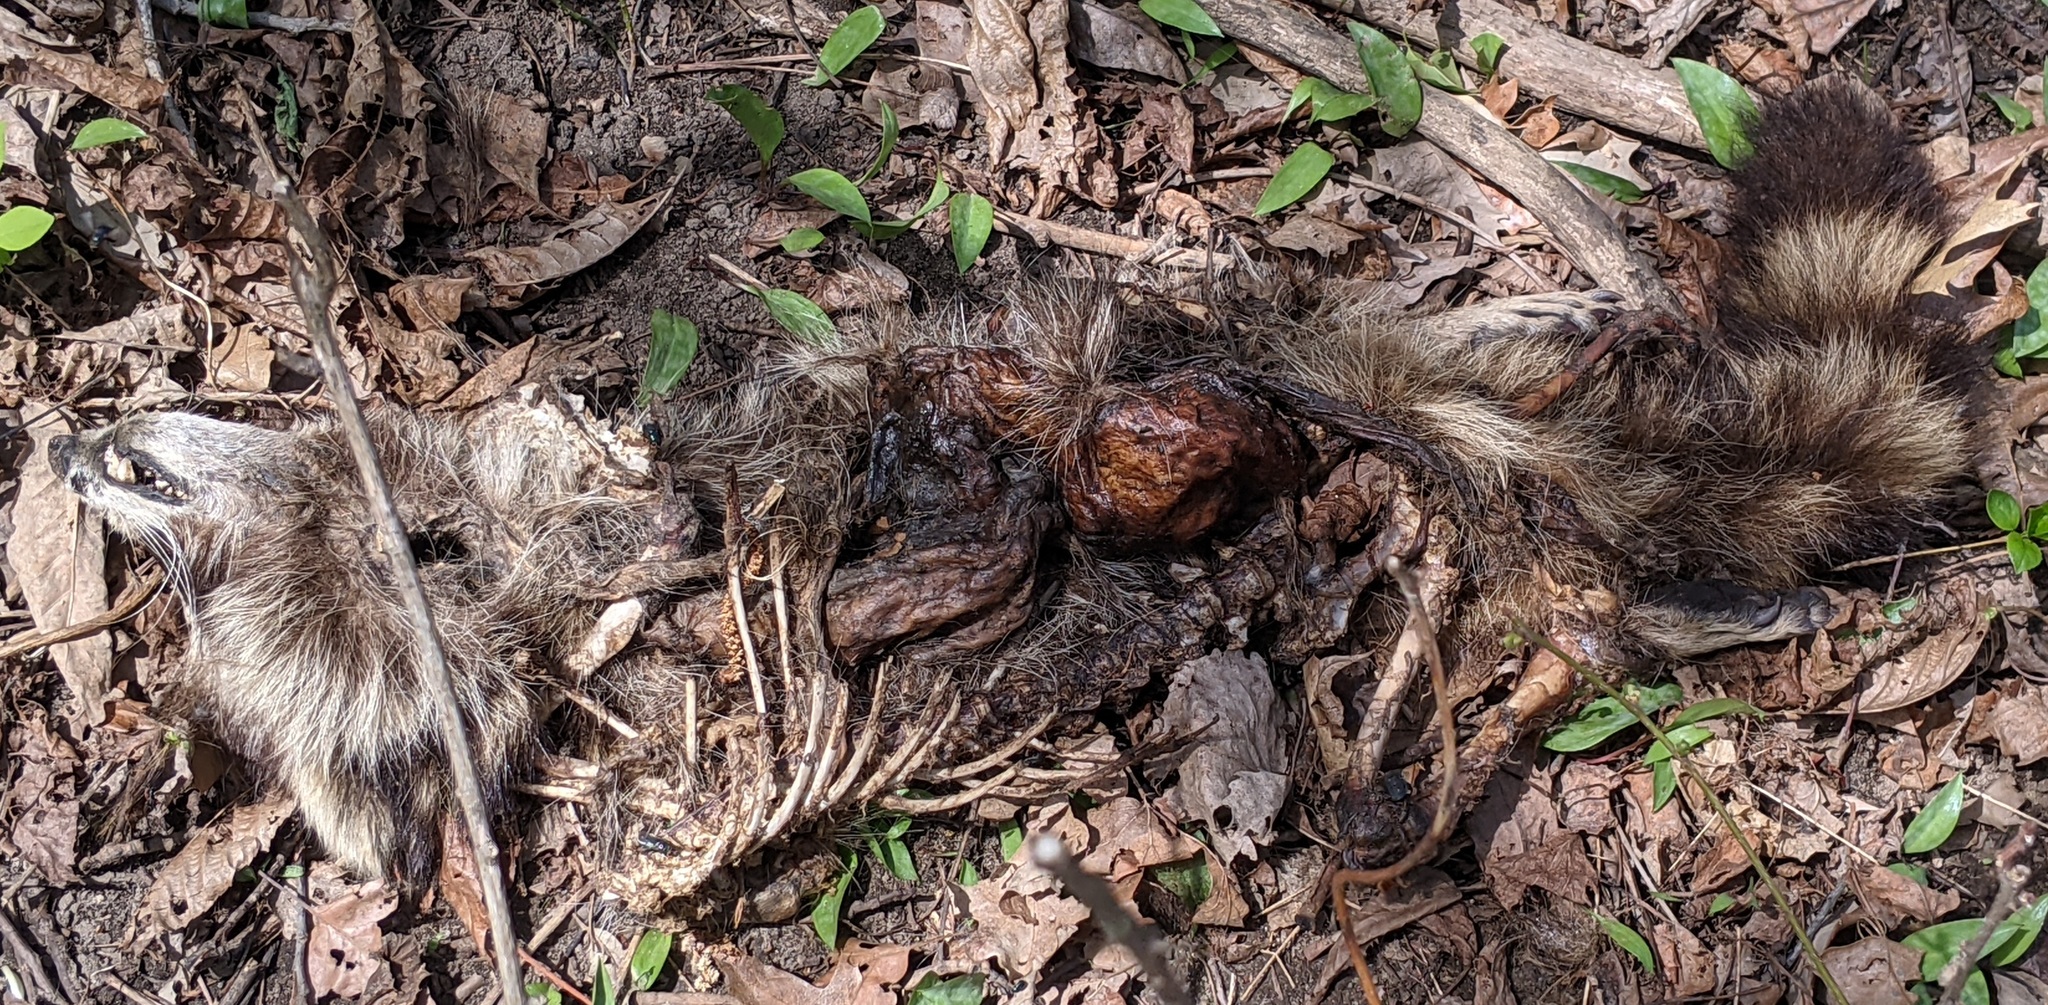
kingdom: Animalia
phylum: Chordata
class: Mammalia
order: Carnivora
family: Procyonidae
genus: Procyon
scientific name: Procyon lotor
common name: Raccoon
